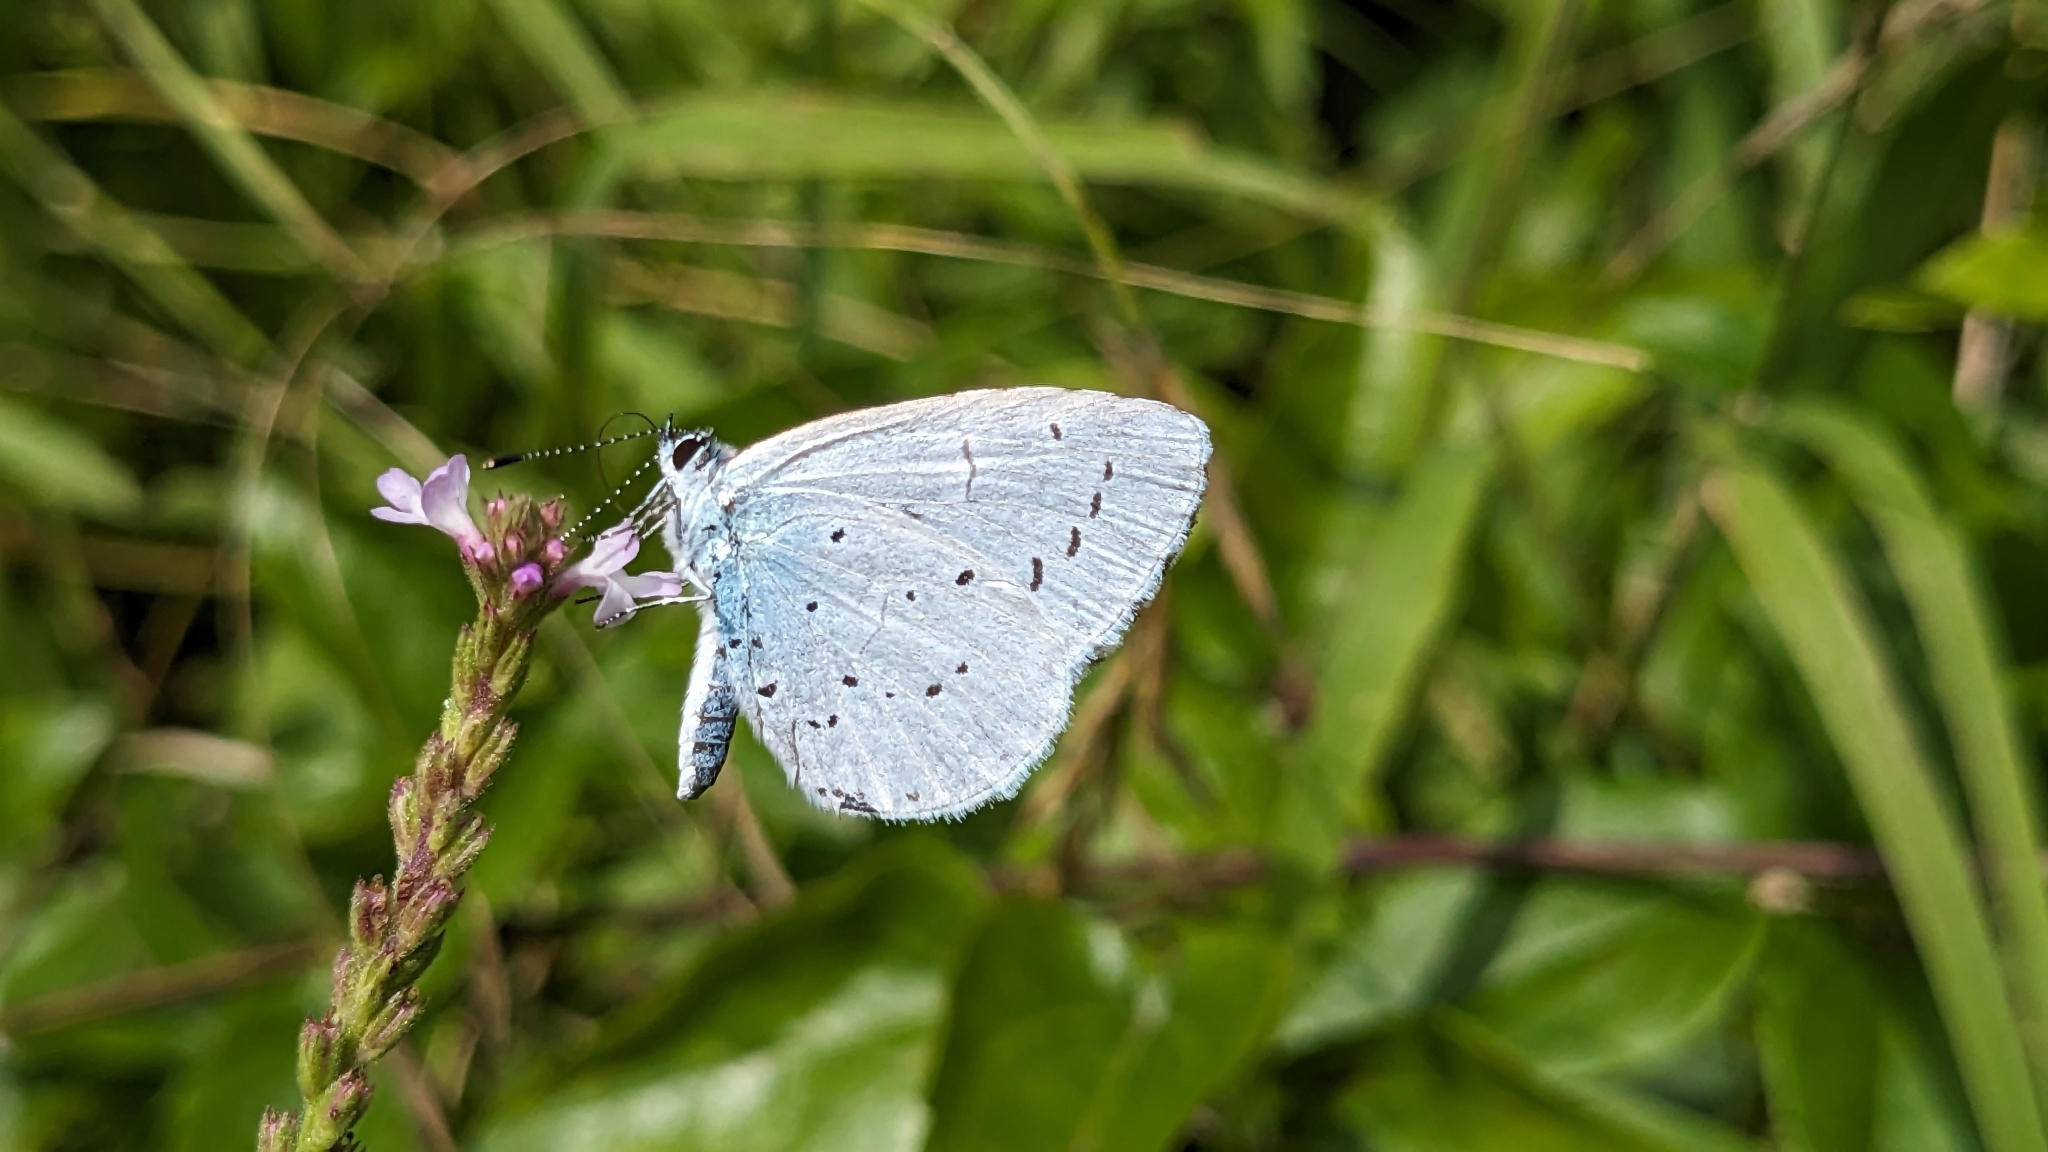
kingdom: Animalia
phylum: Arthropoda
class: Insecta
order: Lepidoptera
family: Lycaenidae
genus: Celastrina
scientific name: Celastrina argiolus
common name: Holly blue
